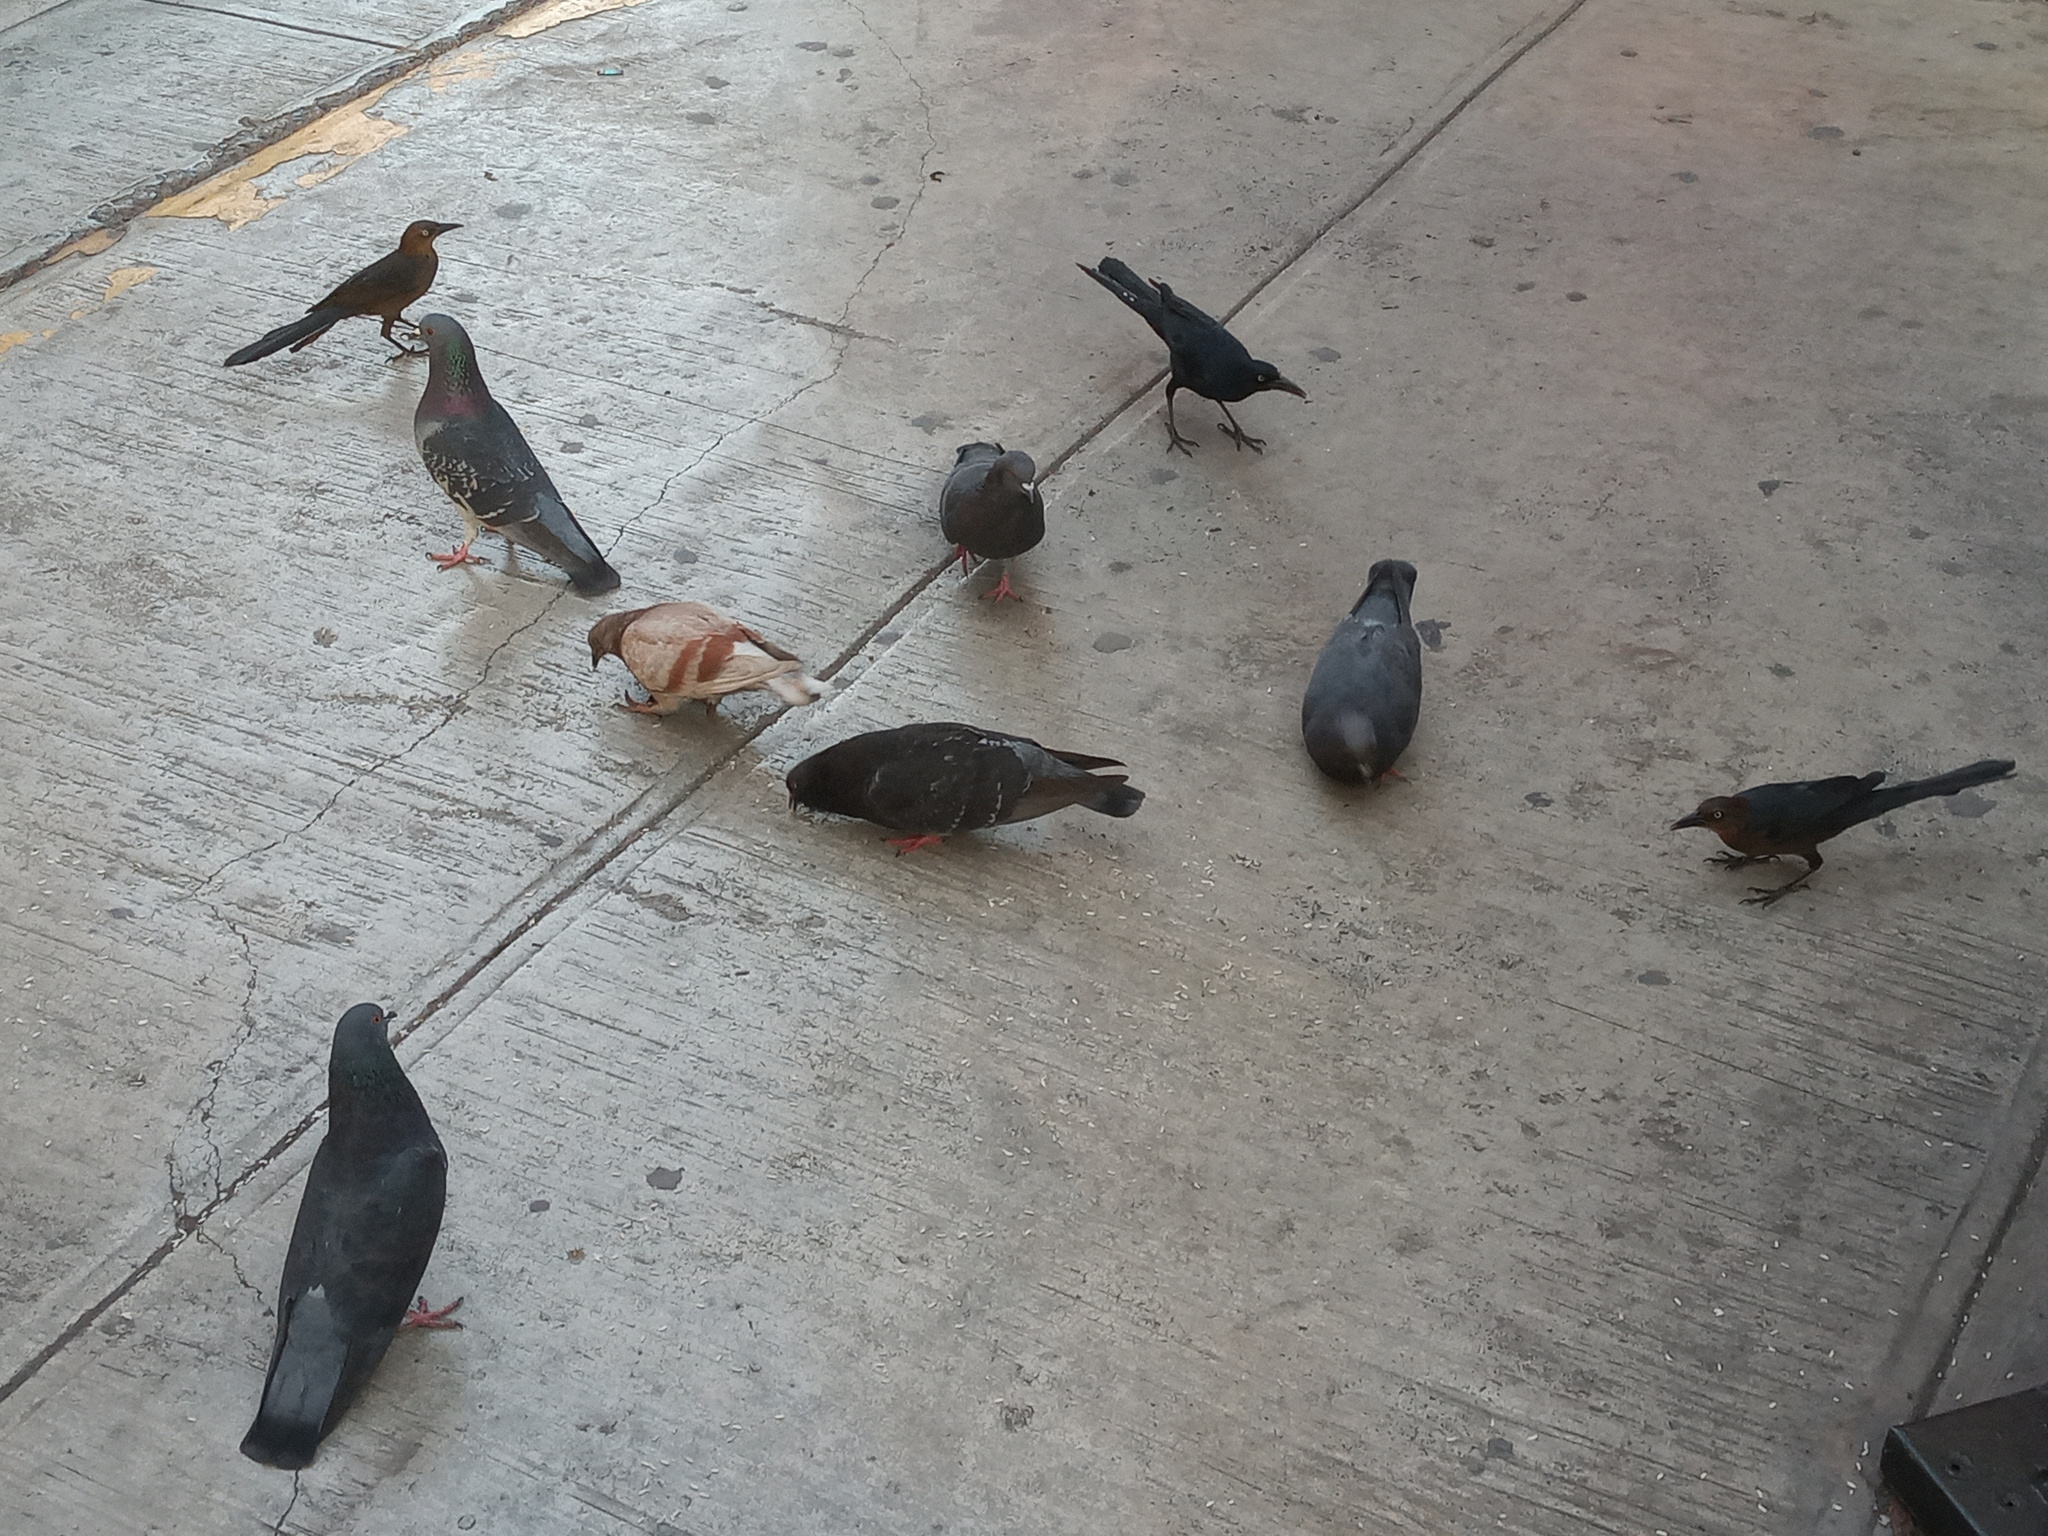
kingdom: Animalia
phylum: Chordata
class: Aves
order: Columbiformes
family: Columbidae
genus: Columba
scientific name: Columba livia
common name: Rock pigeon
